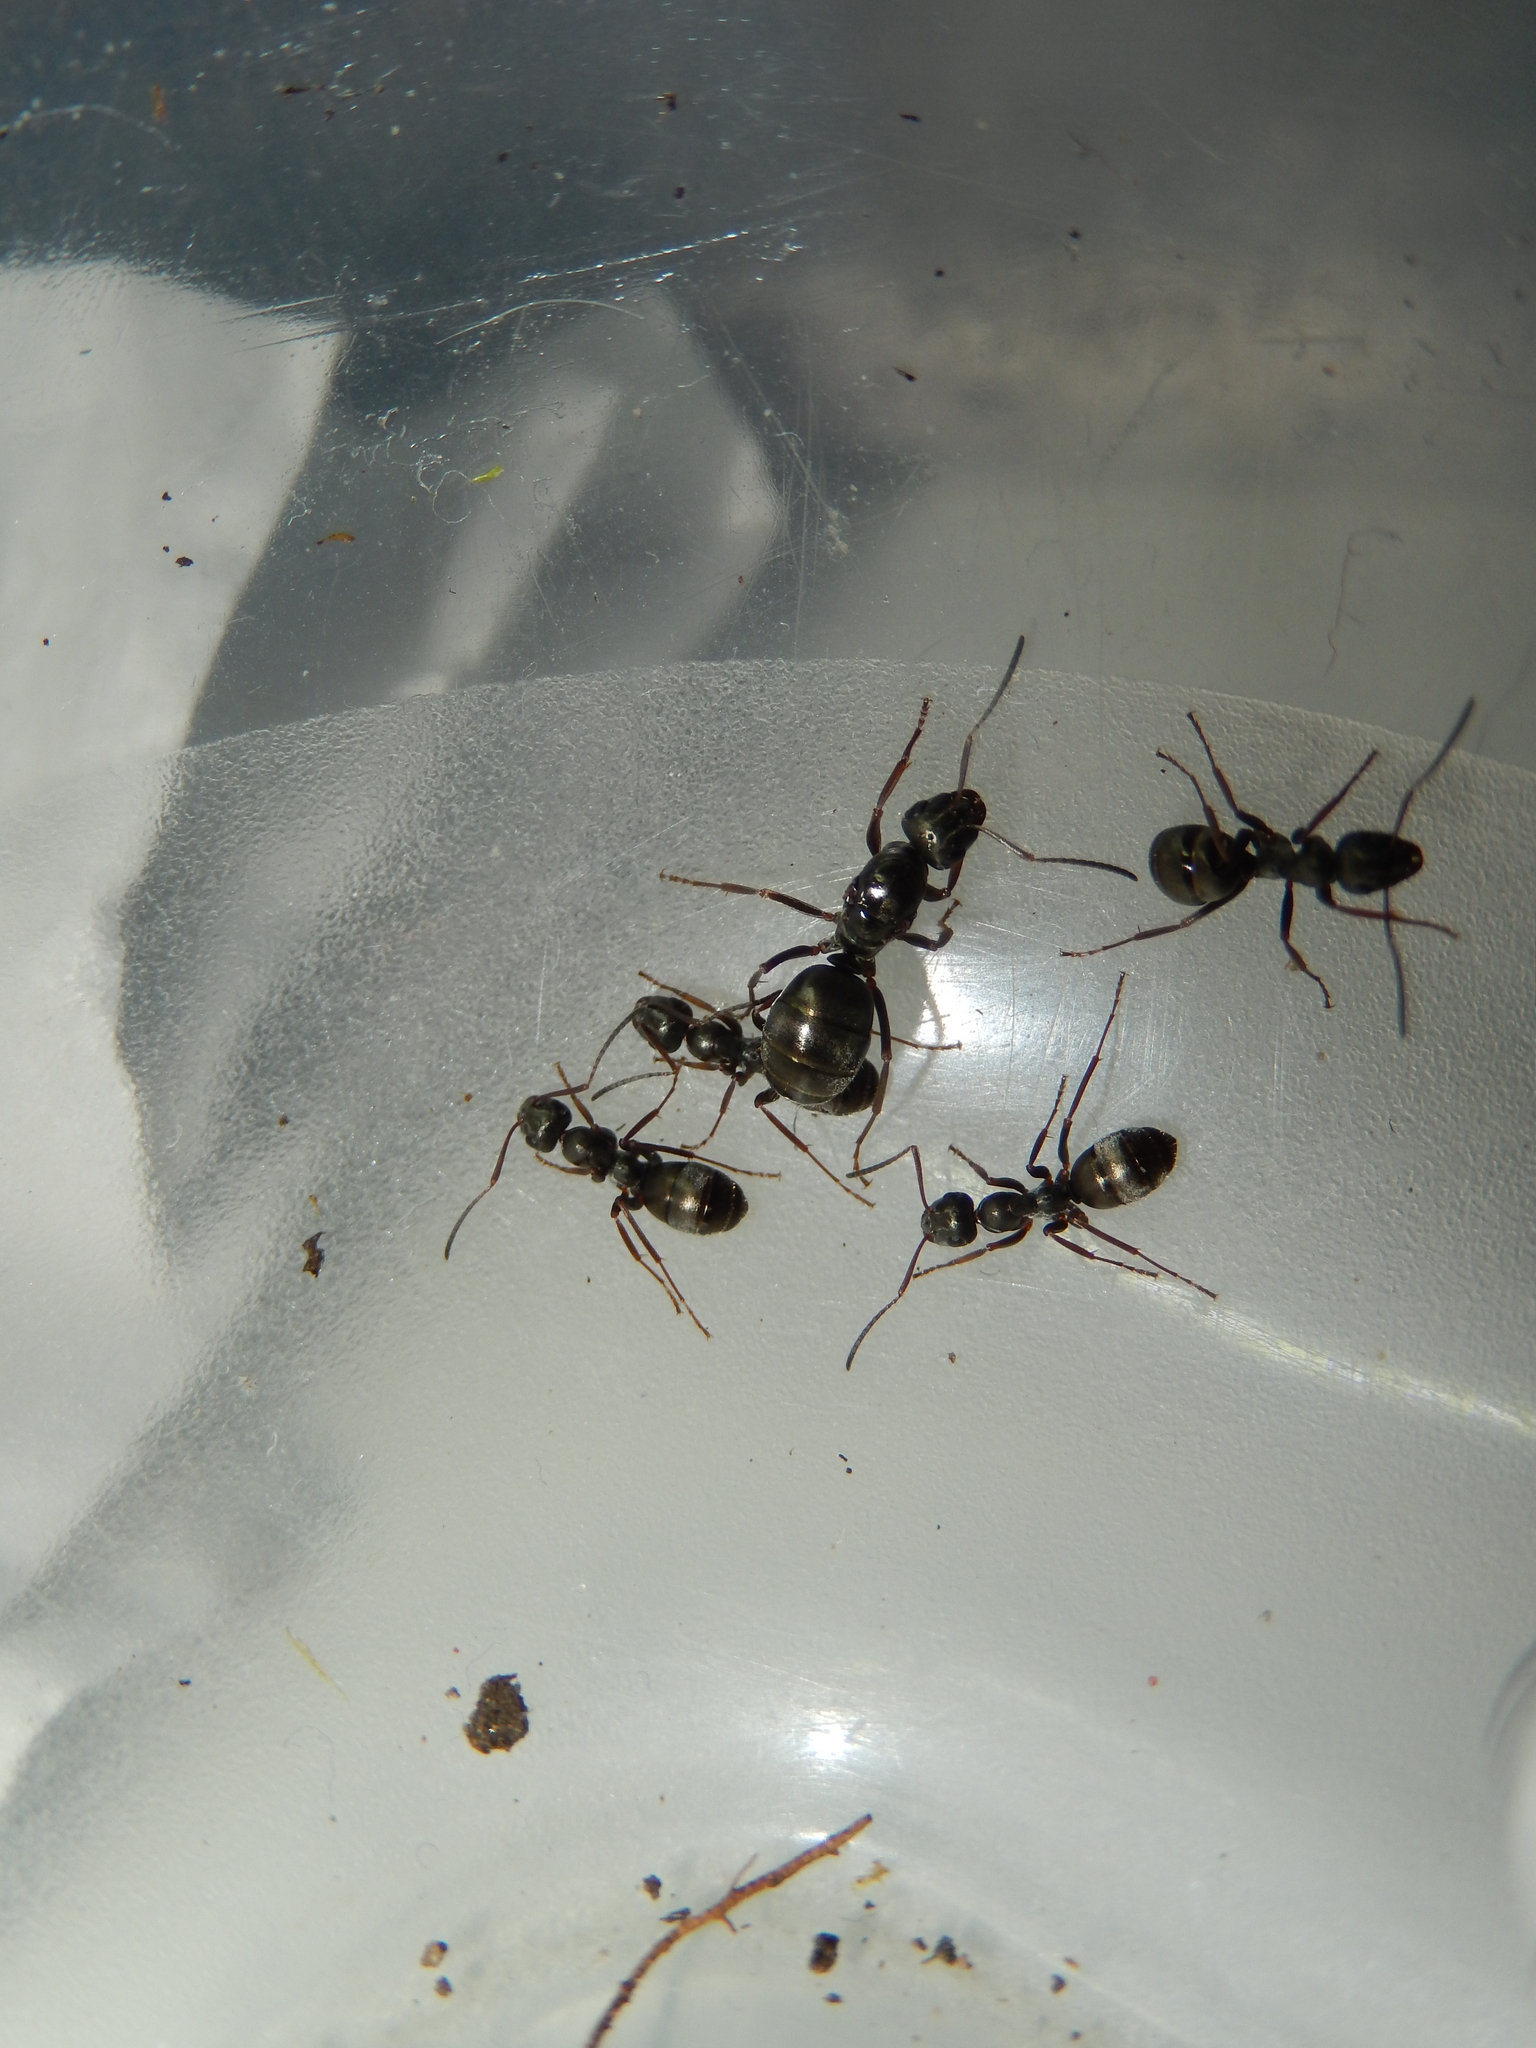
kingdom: Animalia
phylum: Arthropoda
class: Insecta
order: Hymenoptera
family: Formicidae
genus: Formica
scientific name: Formica fusca
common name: Silky ant
